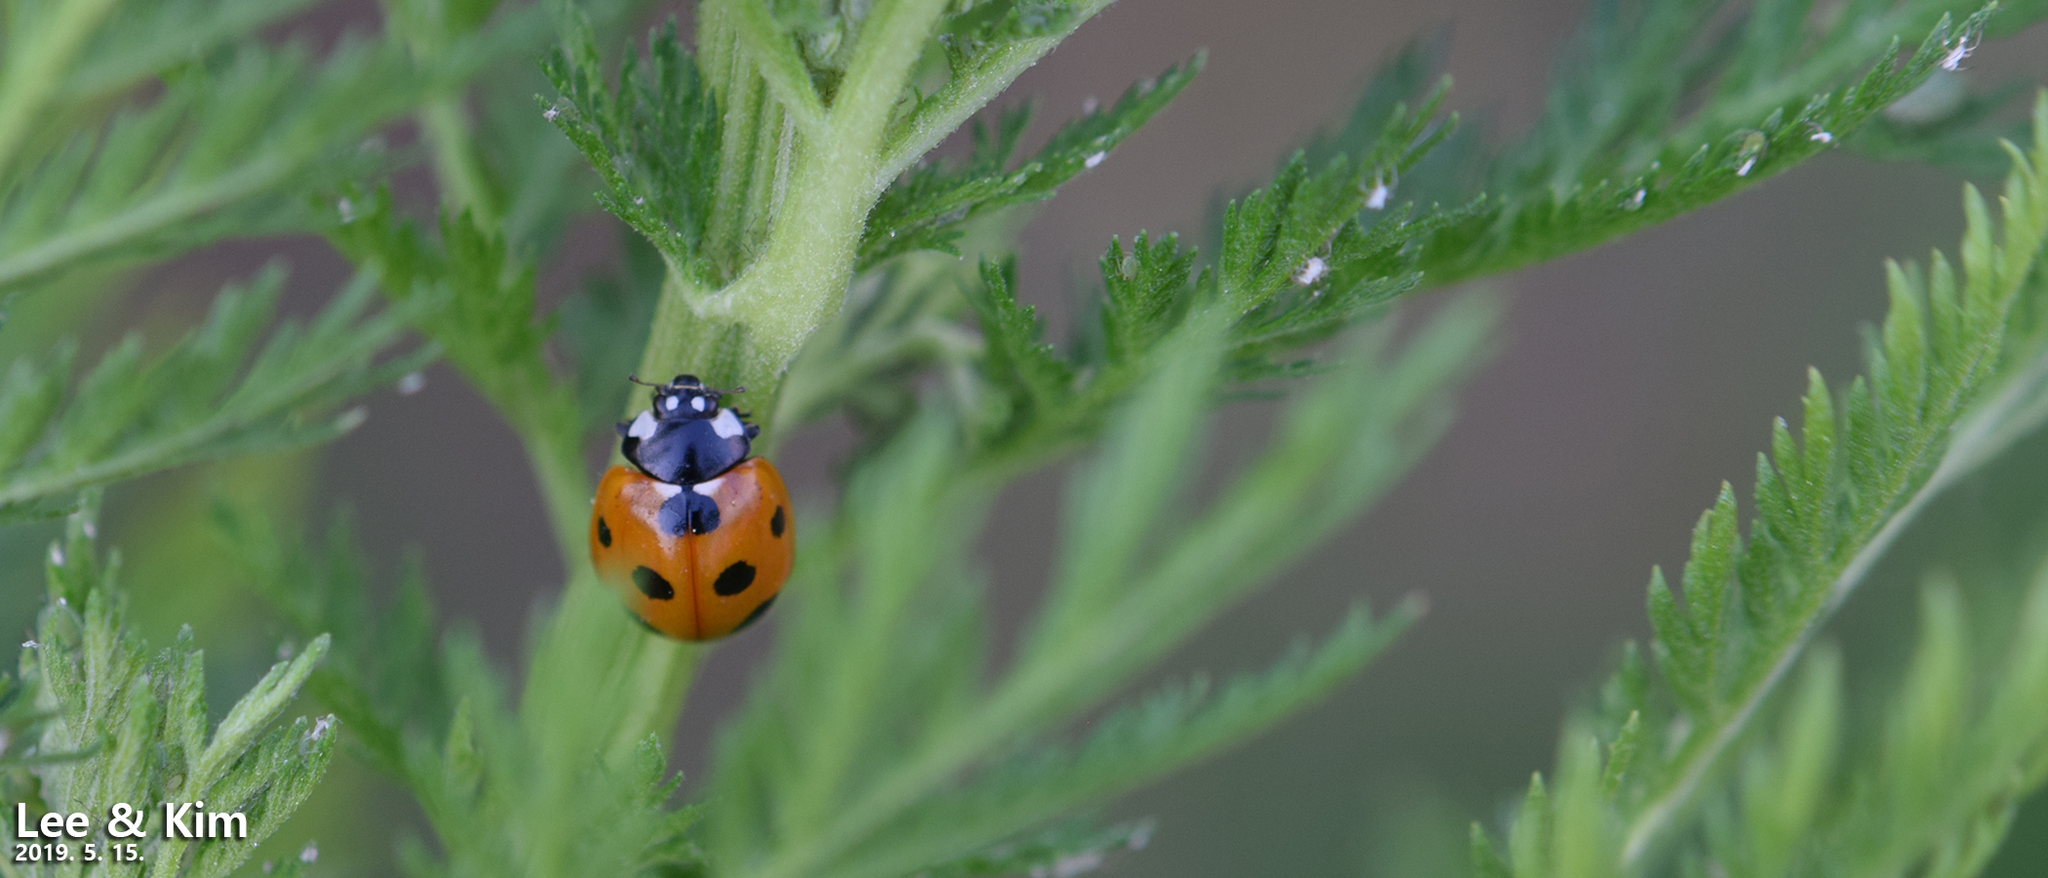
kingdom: Animalia
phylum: Arthropoda
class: Insecta
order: Coleoptera
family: Coccinellidae
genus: Coccinella
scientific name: Coccinella septempunctata
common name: Sevenspotted lady beetle
